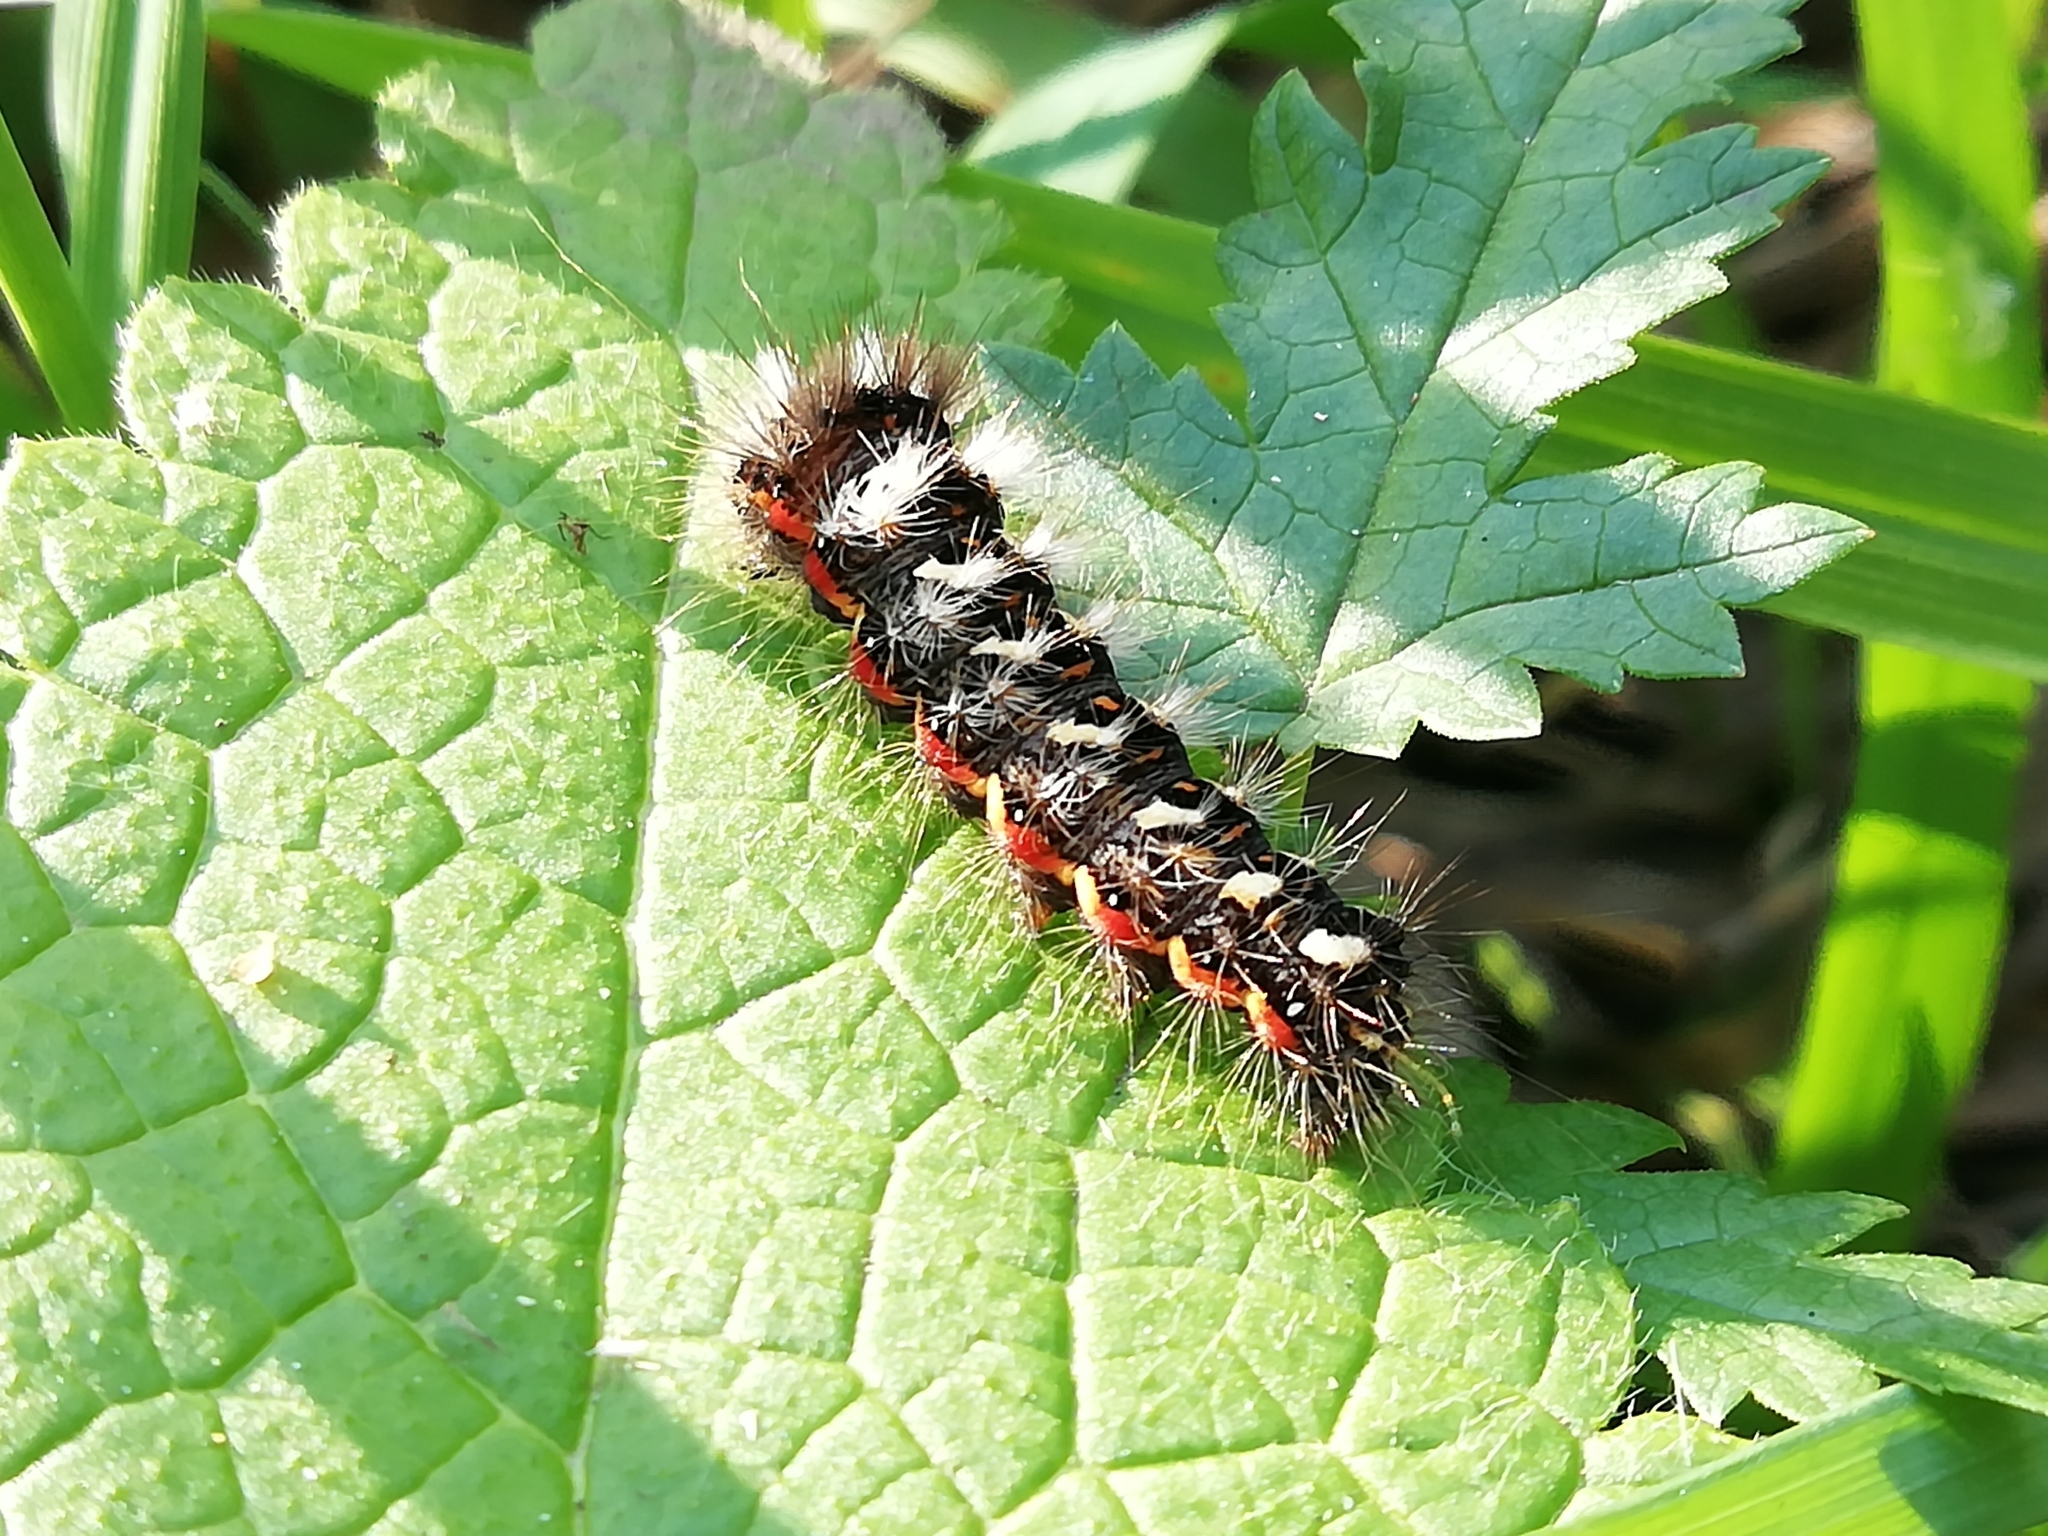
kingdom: Animalia
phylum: Arthropoda
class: Insecta
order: Lepidoptera
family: Noctuidae
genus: Acronicta
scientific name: Acronicta rumicis
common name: Knot grass
